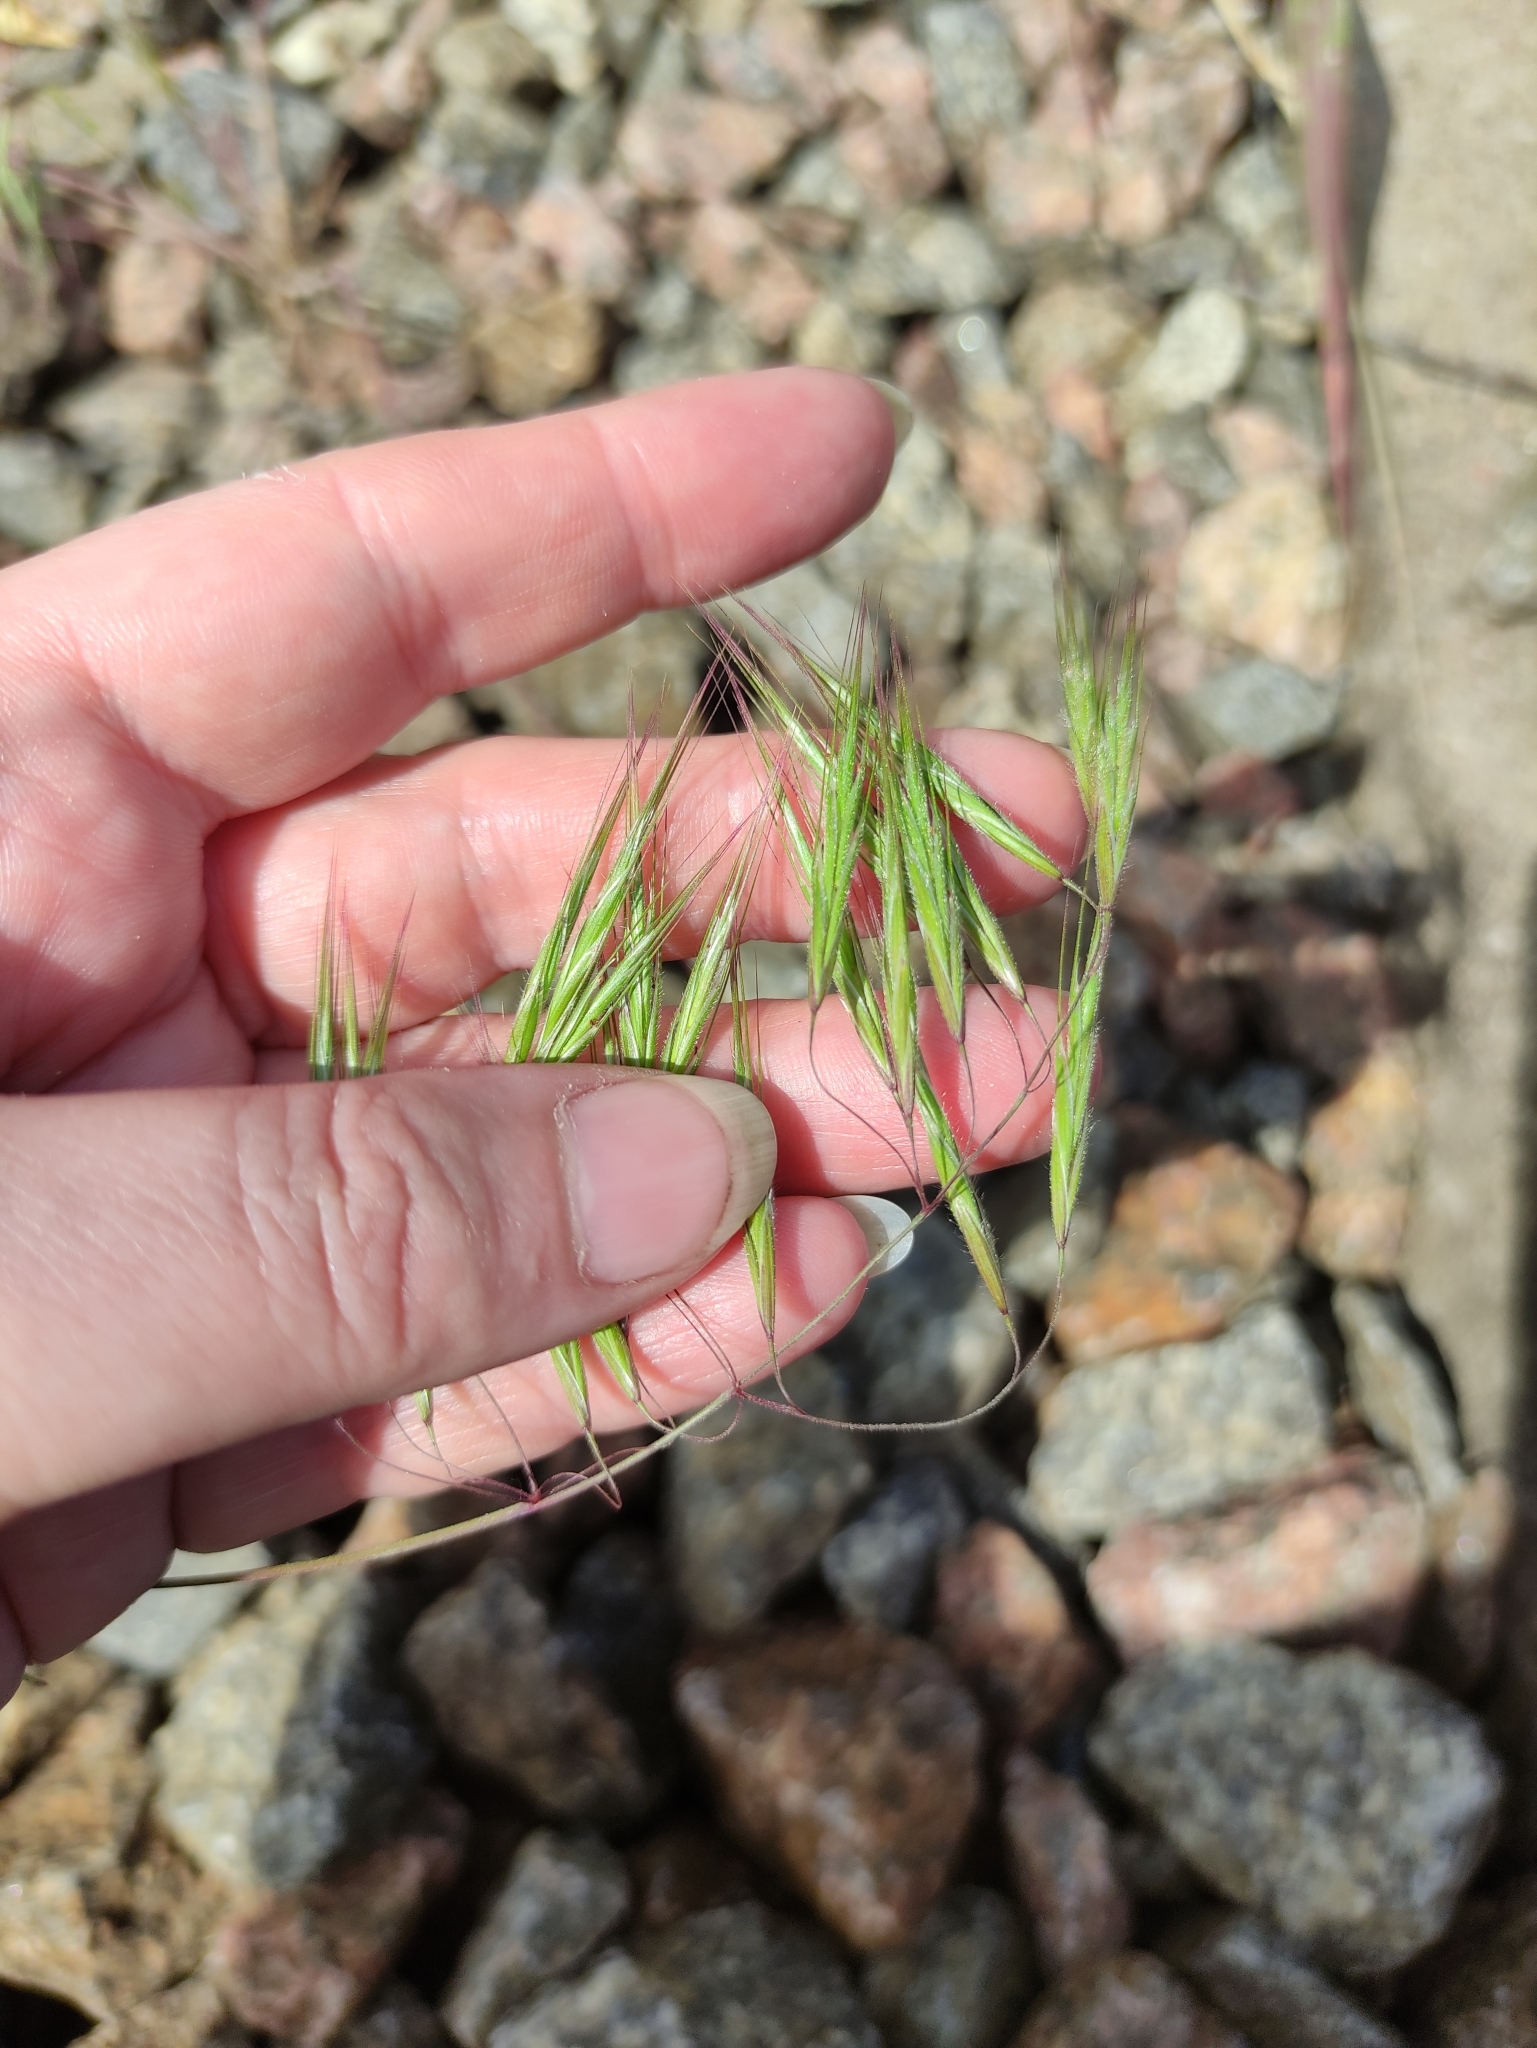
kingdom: Plantae
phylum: Tracheophyta
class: Liliopsida
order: Poales
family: Poaceae
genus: Bromus
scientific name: Bromus tectorum
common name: Cheatgrass
